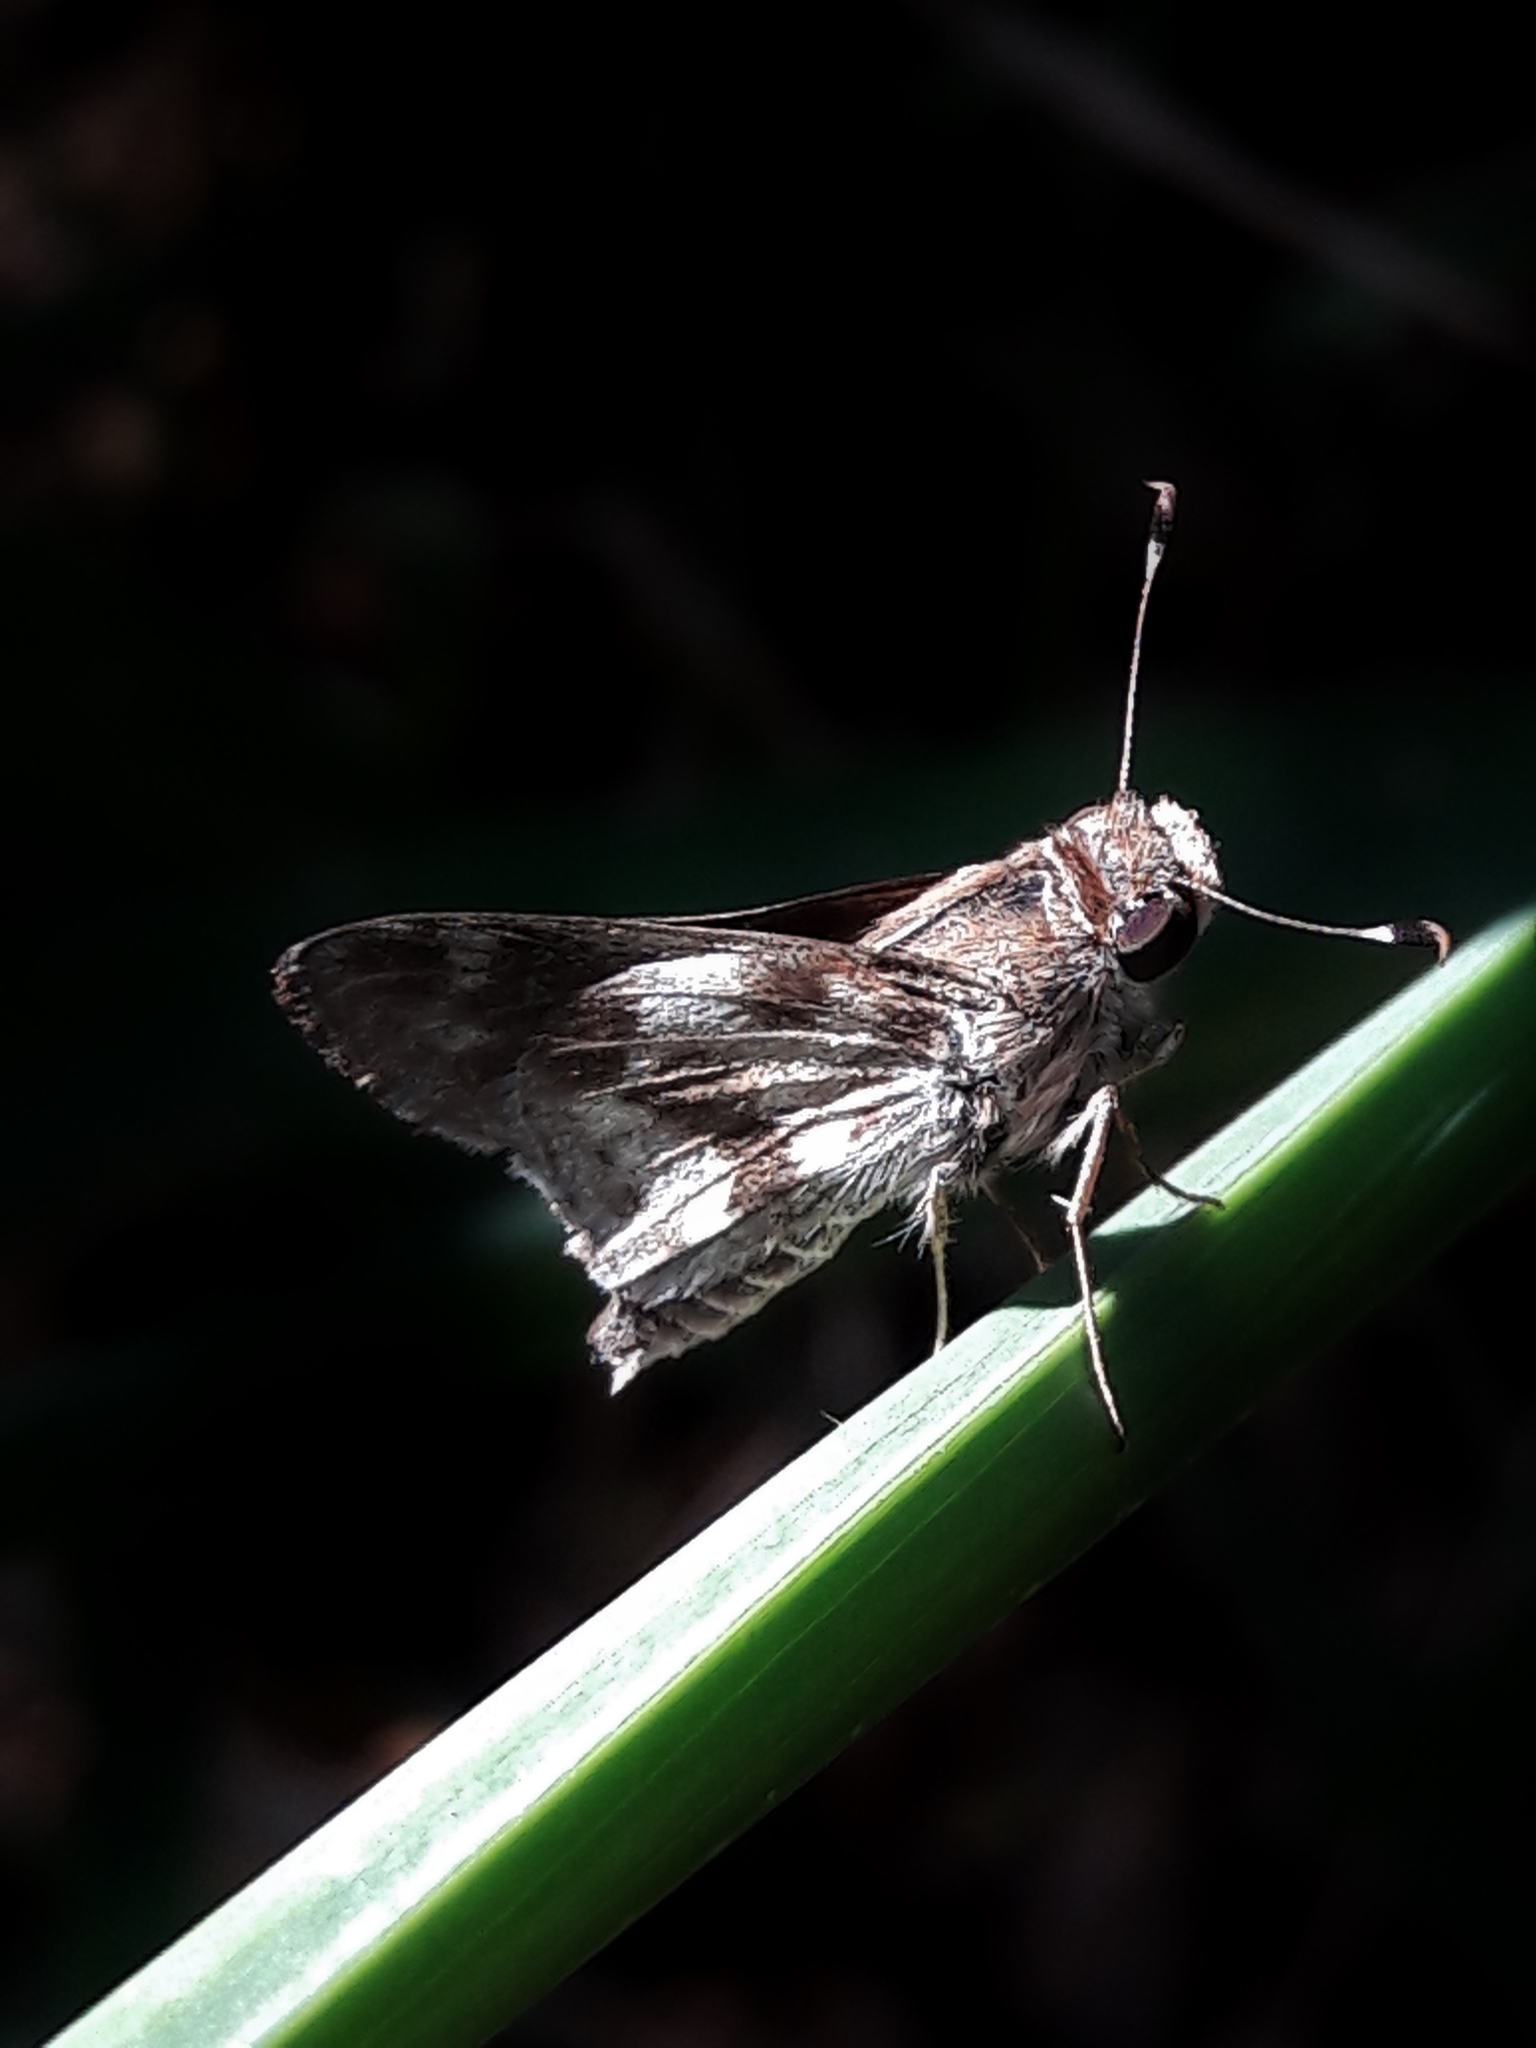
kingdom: Animalia
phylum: Arthropoda
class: Insecta
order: Lepidoptera
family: Hesperiidae
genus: Pompeius
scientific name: Pompeius pompeius
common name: Pompeius skipper
